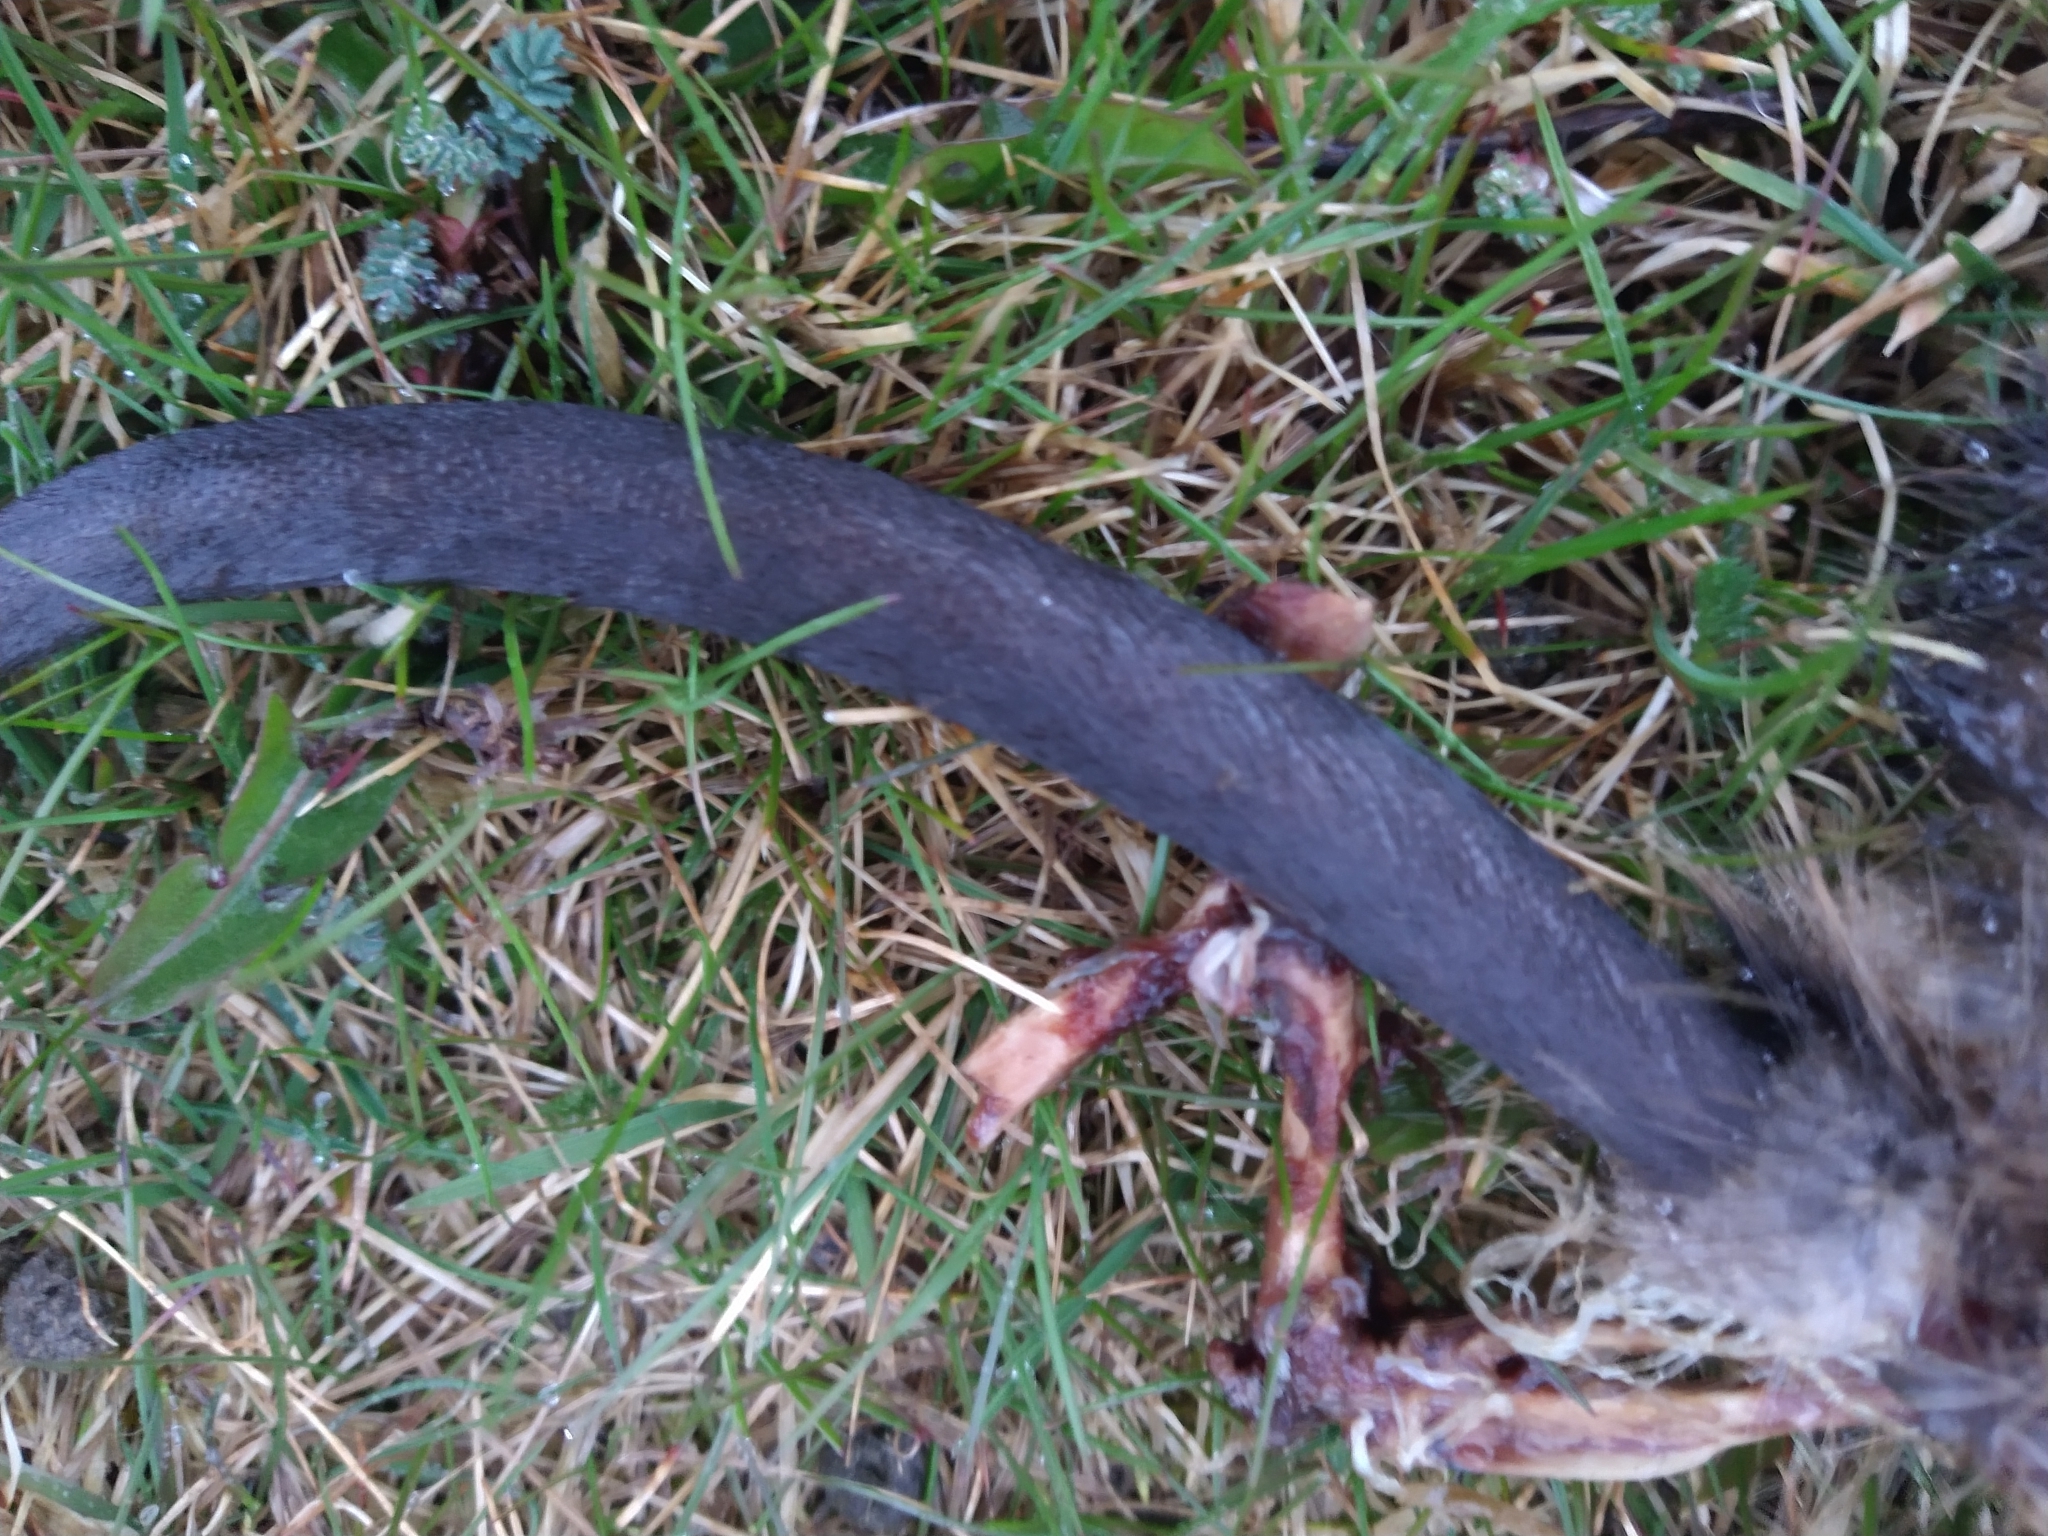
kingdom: Animalia
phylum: Chordata
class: Mammalia
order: Rodentia
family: Cricetidae
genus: Ondatra
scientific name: Ondatra zibethicus
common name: Muskrat
